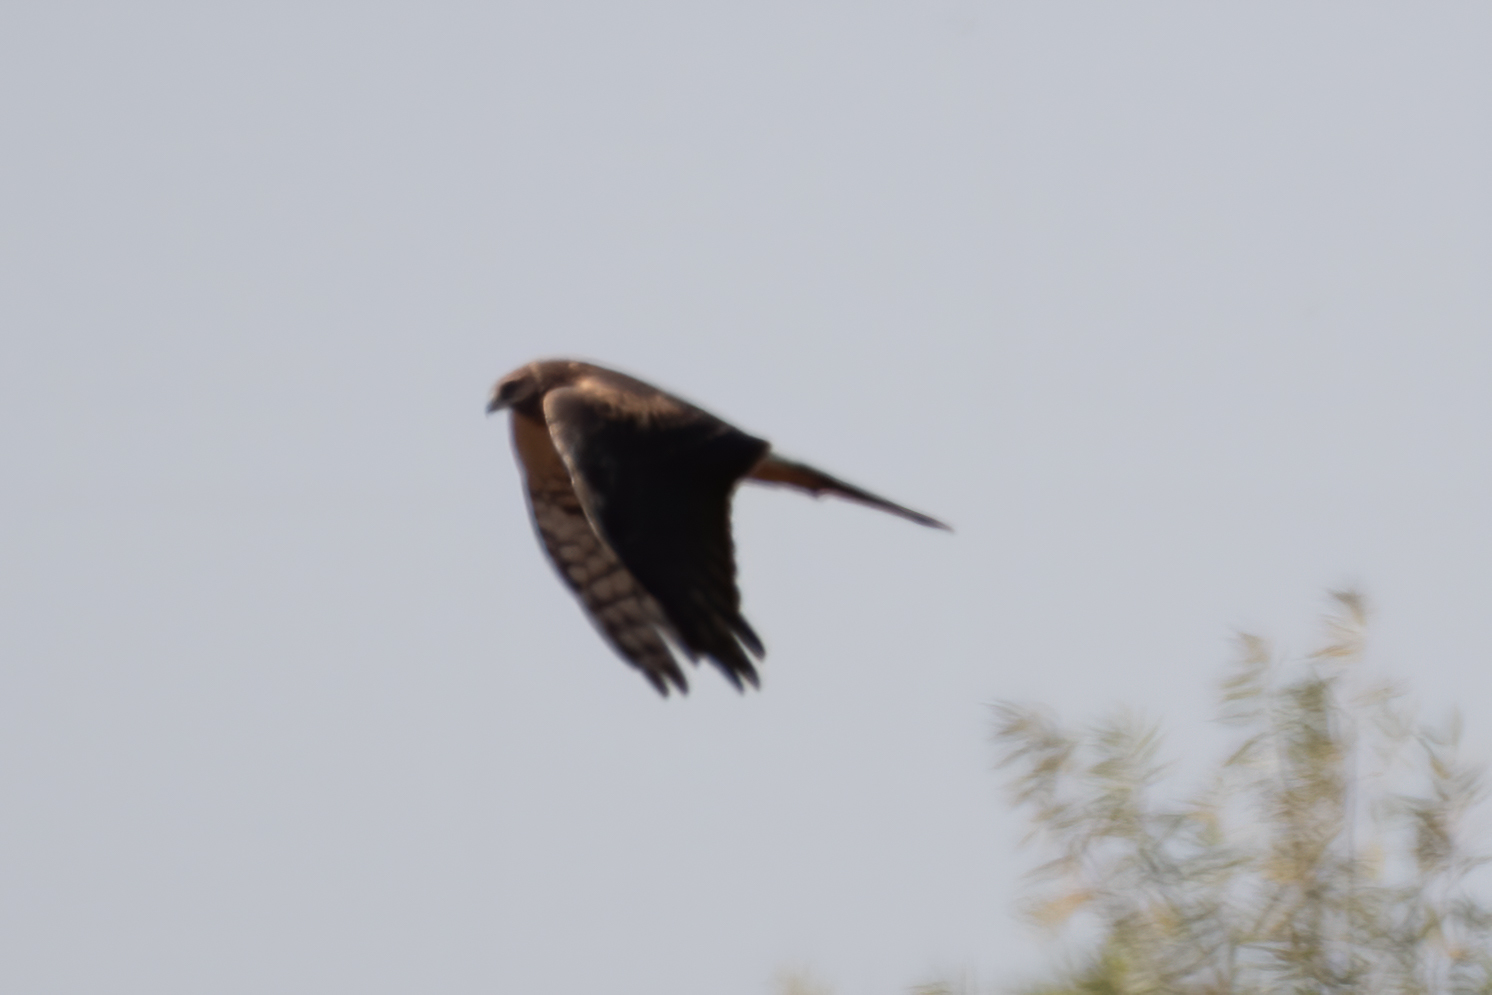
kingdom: Animalia
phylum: Chordata
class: Aves
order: Accipitriformes
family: Accipitridae
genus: Circus
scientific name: Circus cyaneus
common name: Hen harrier
